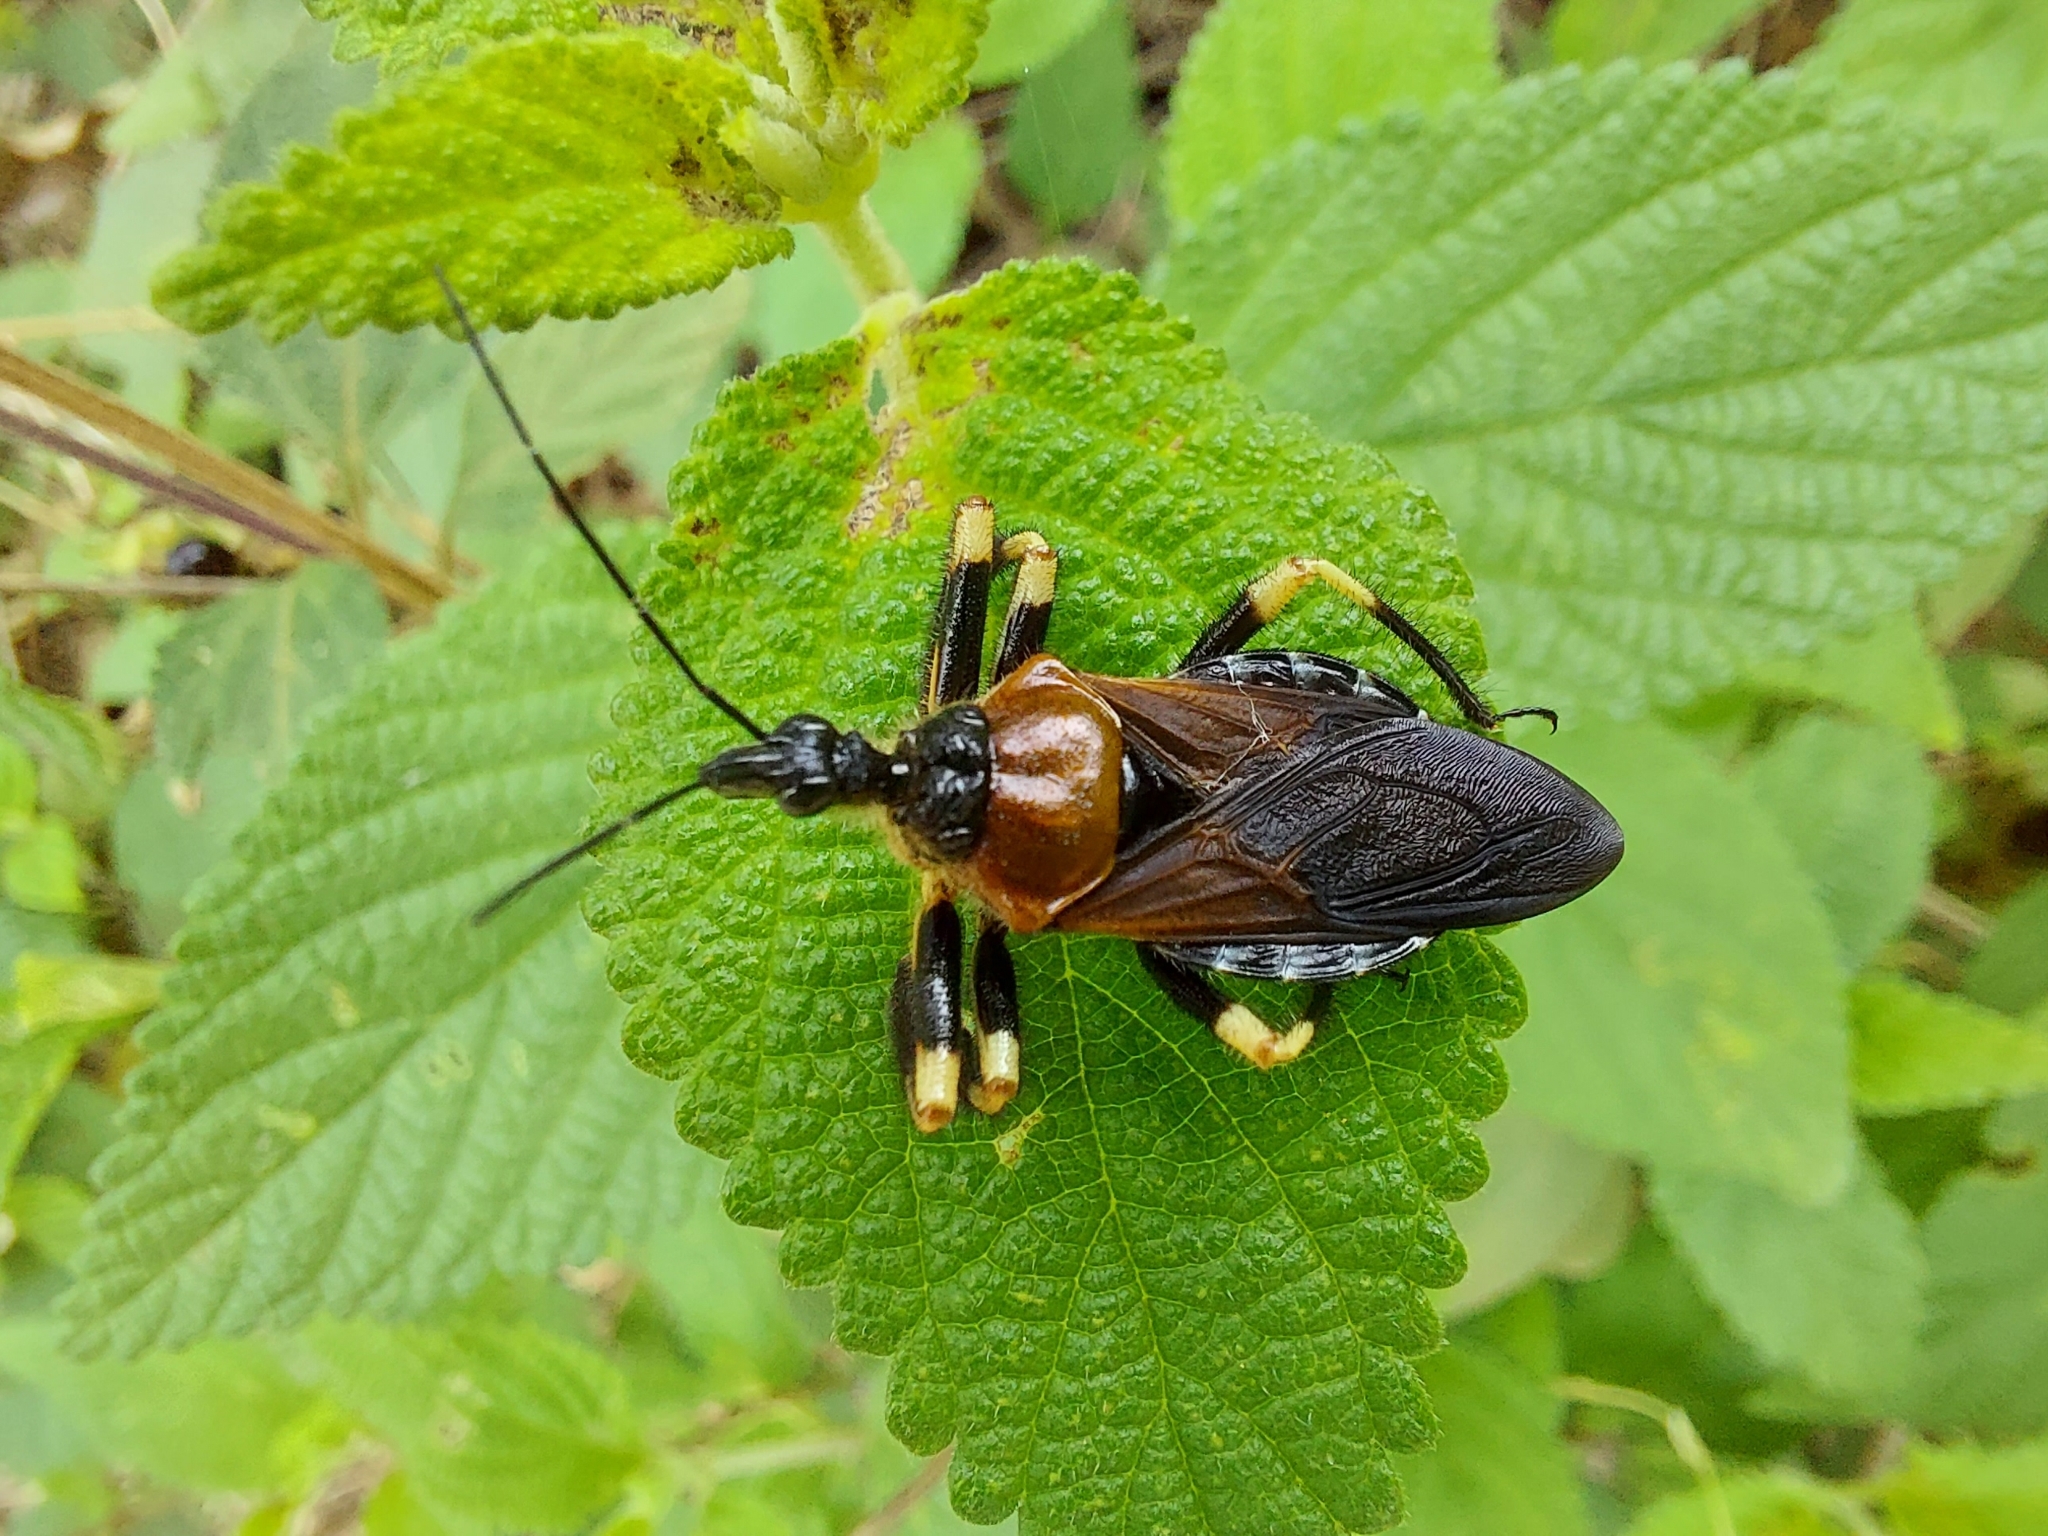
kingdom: Animalia
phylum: Arthropoda
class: Insecta
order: Hemiptera
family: Reduviidae
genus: Apiomerus
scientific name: Apiomerus mutabilis
